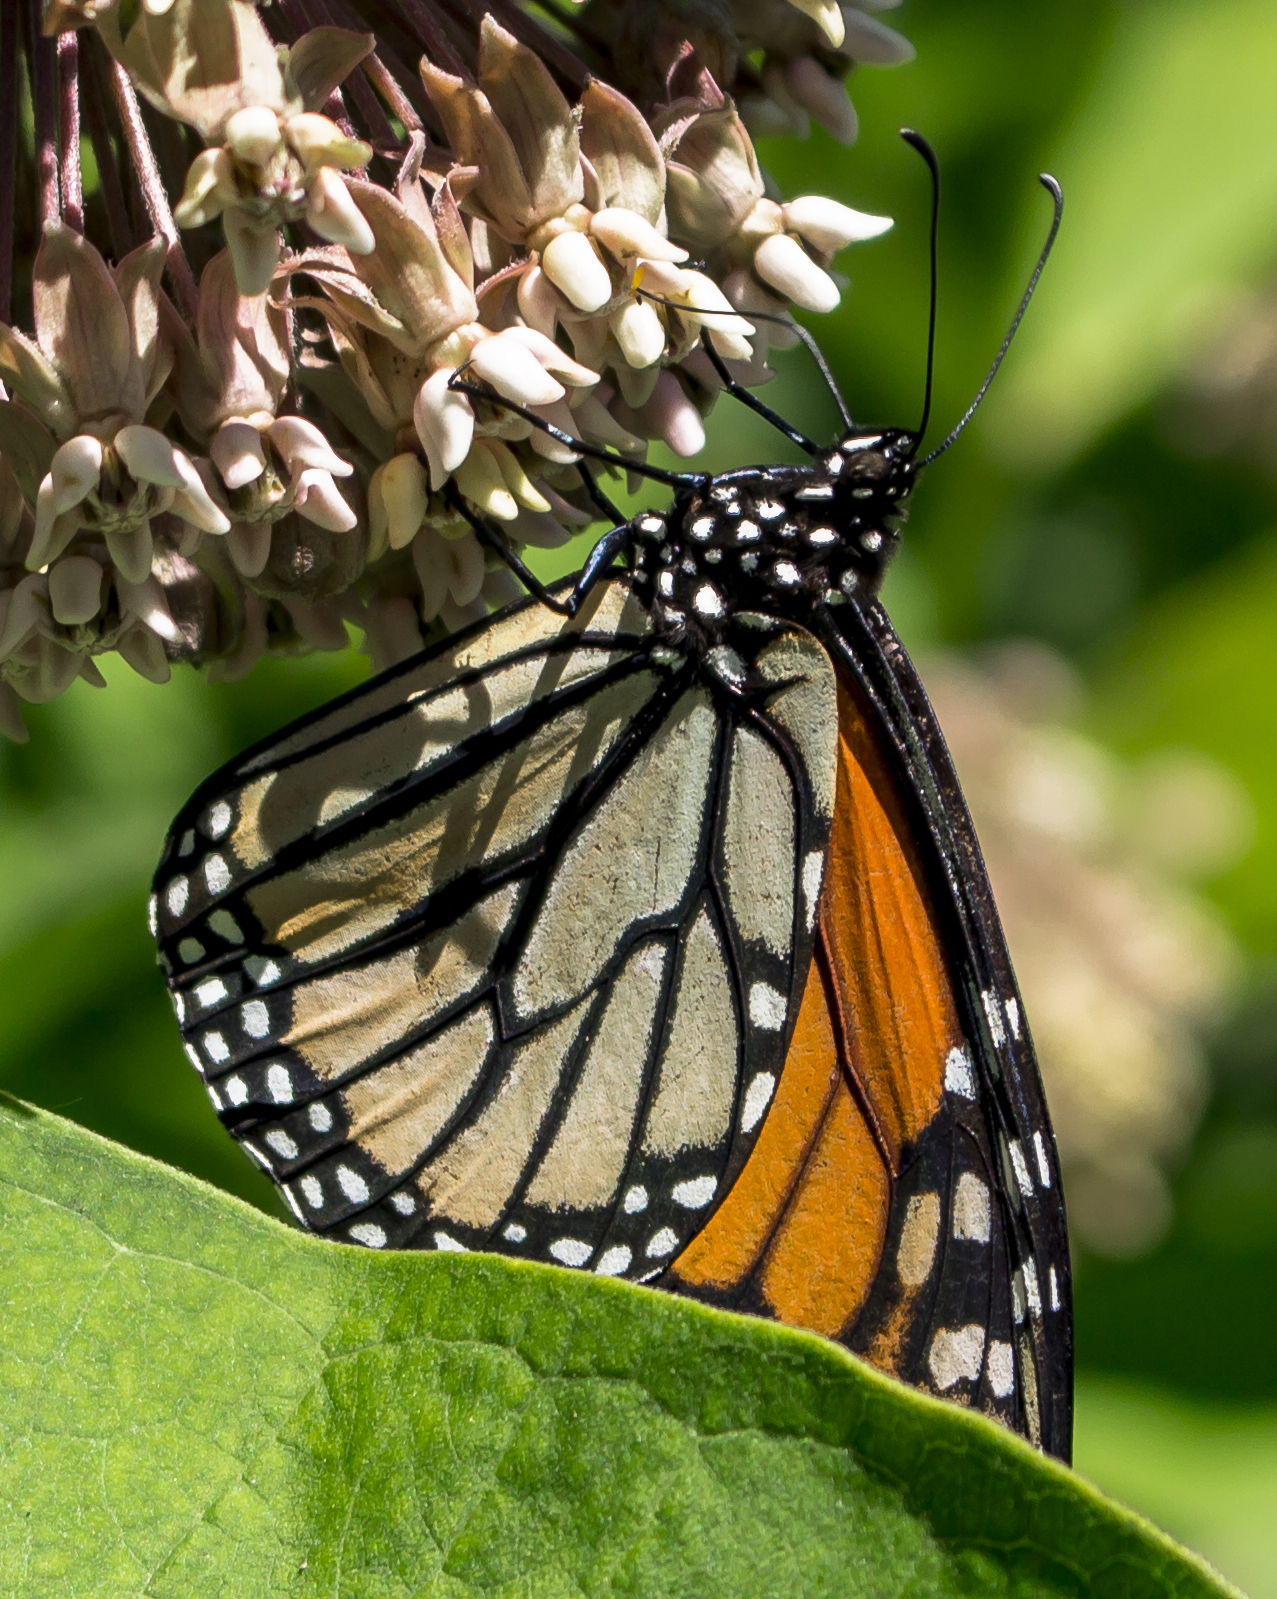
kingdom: Animalia
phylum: Arthropoda
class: Insecta
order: Lepidoptera
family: Nymphalidae
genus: Danaus
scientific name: Danaus plexippus
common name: Monarch
